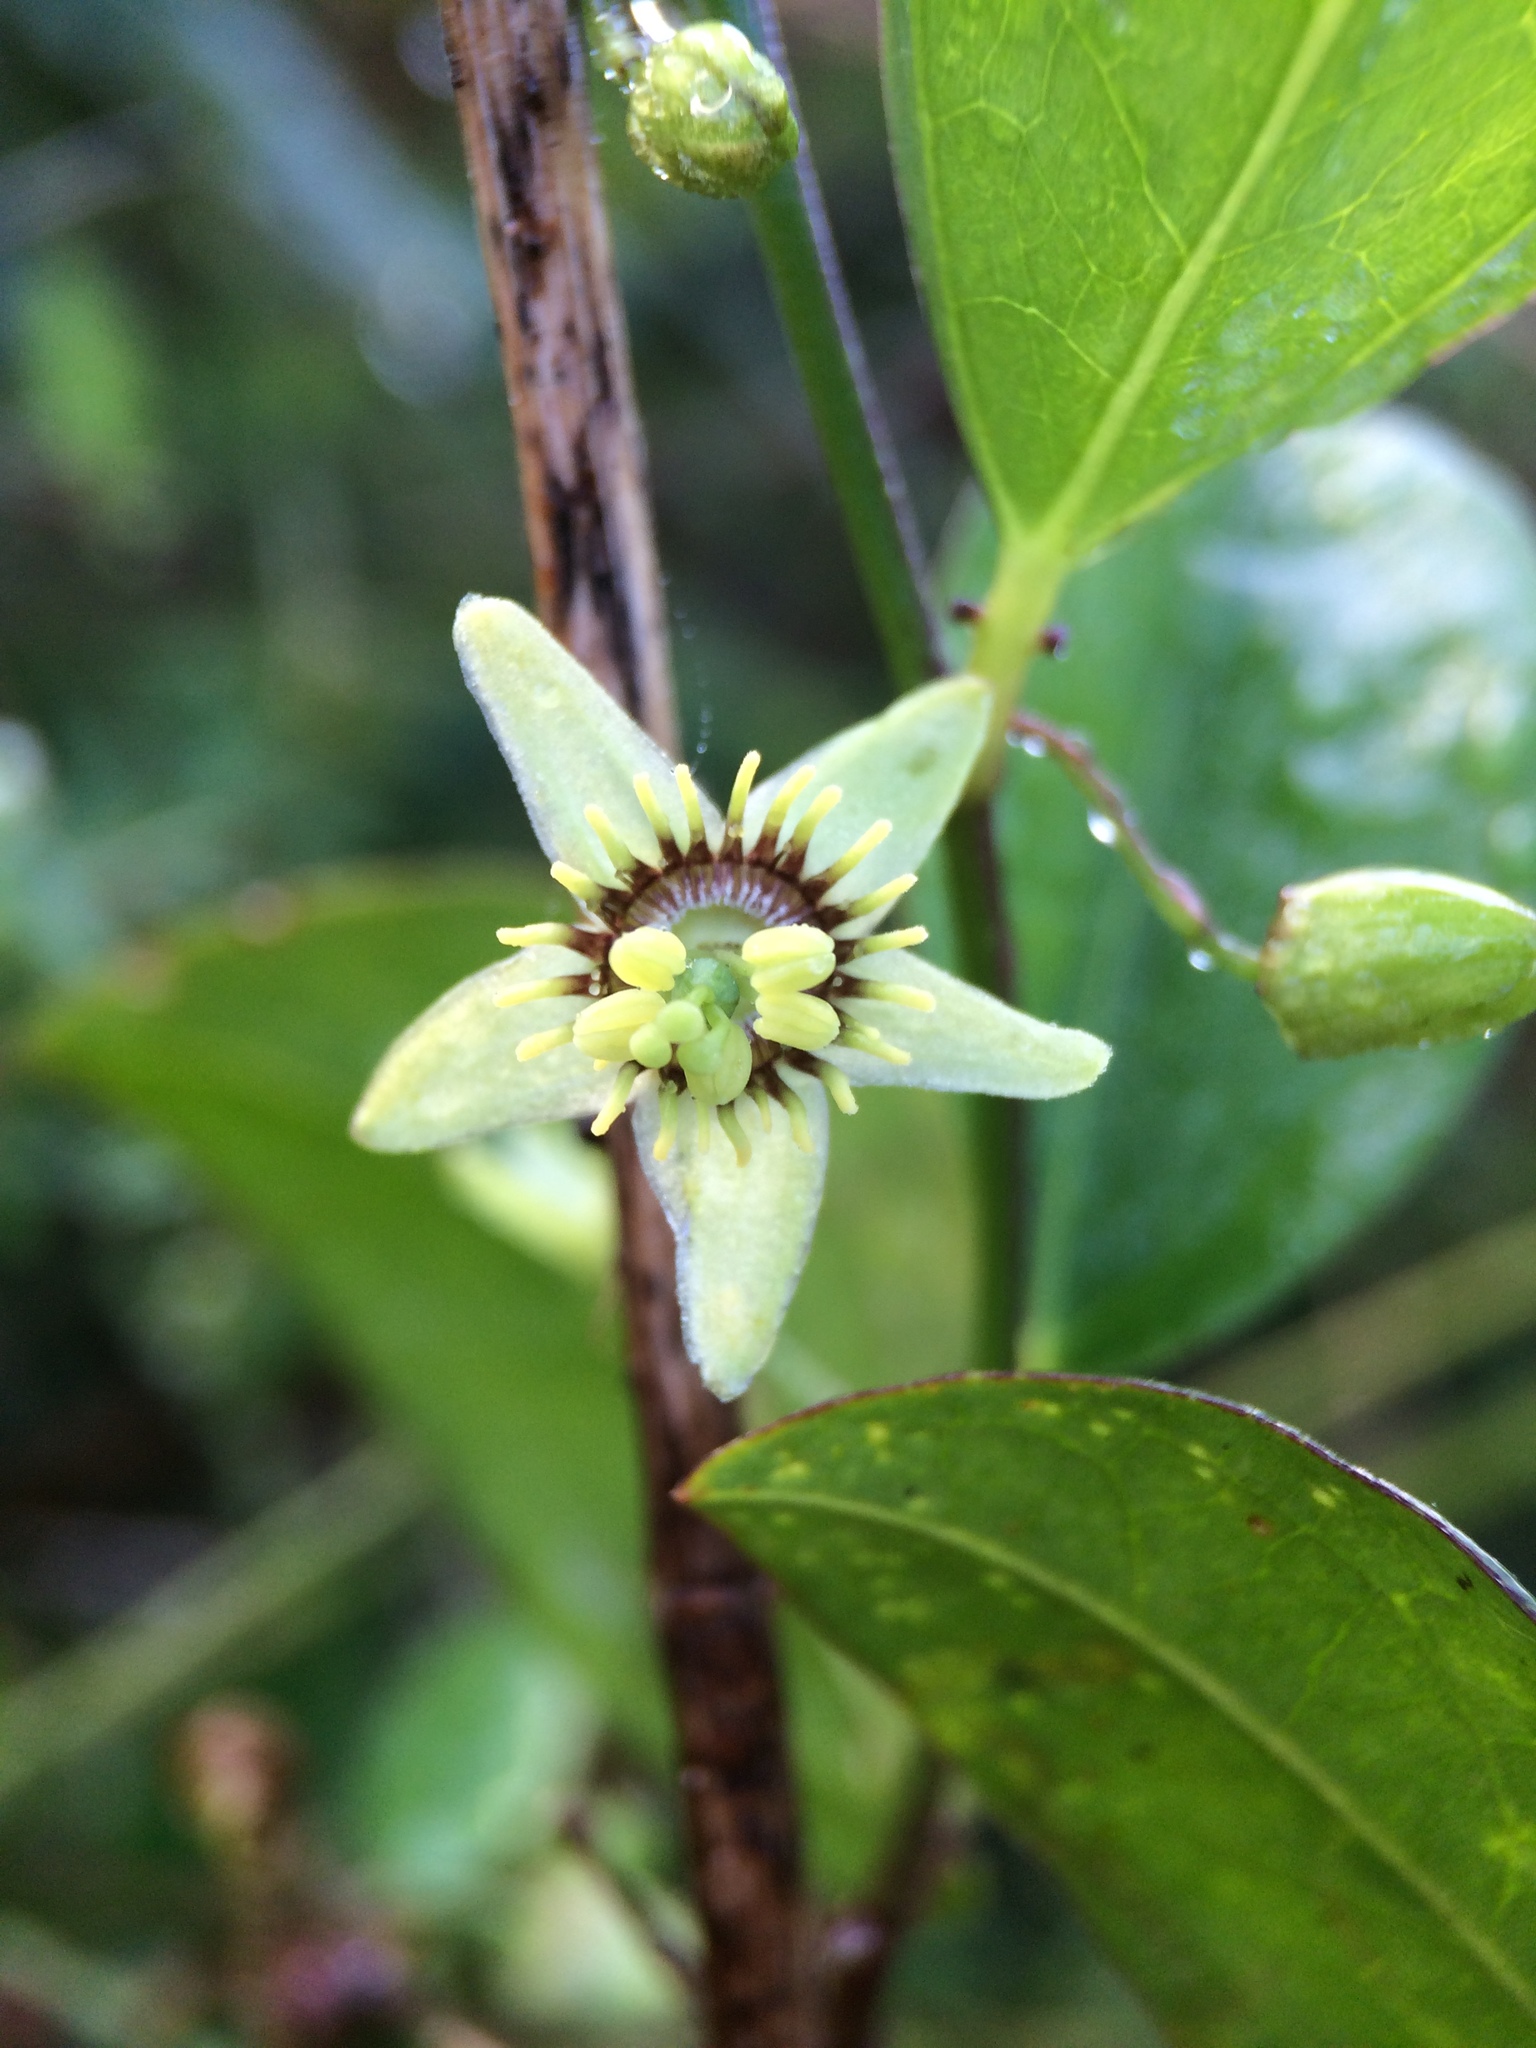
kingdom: Plantae
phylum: Tracheophyta
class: Magnoliopsida
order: Malpighiales
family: Passifloraceae
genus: Passiflora
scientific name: Passiflora pallida
